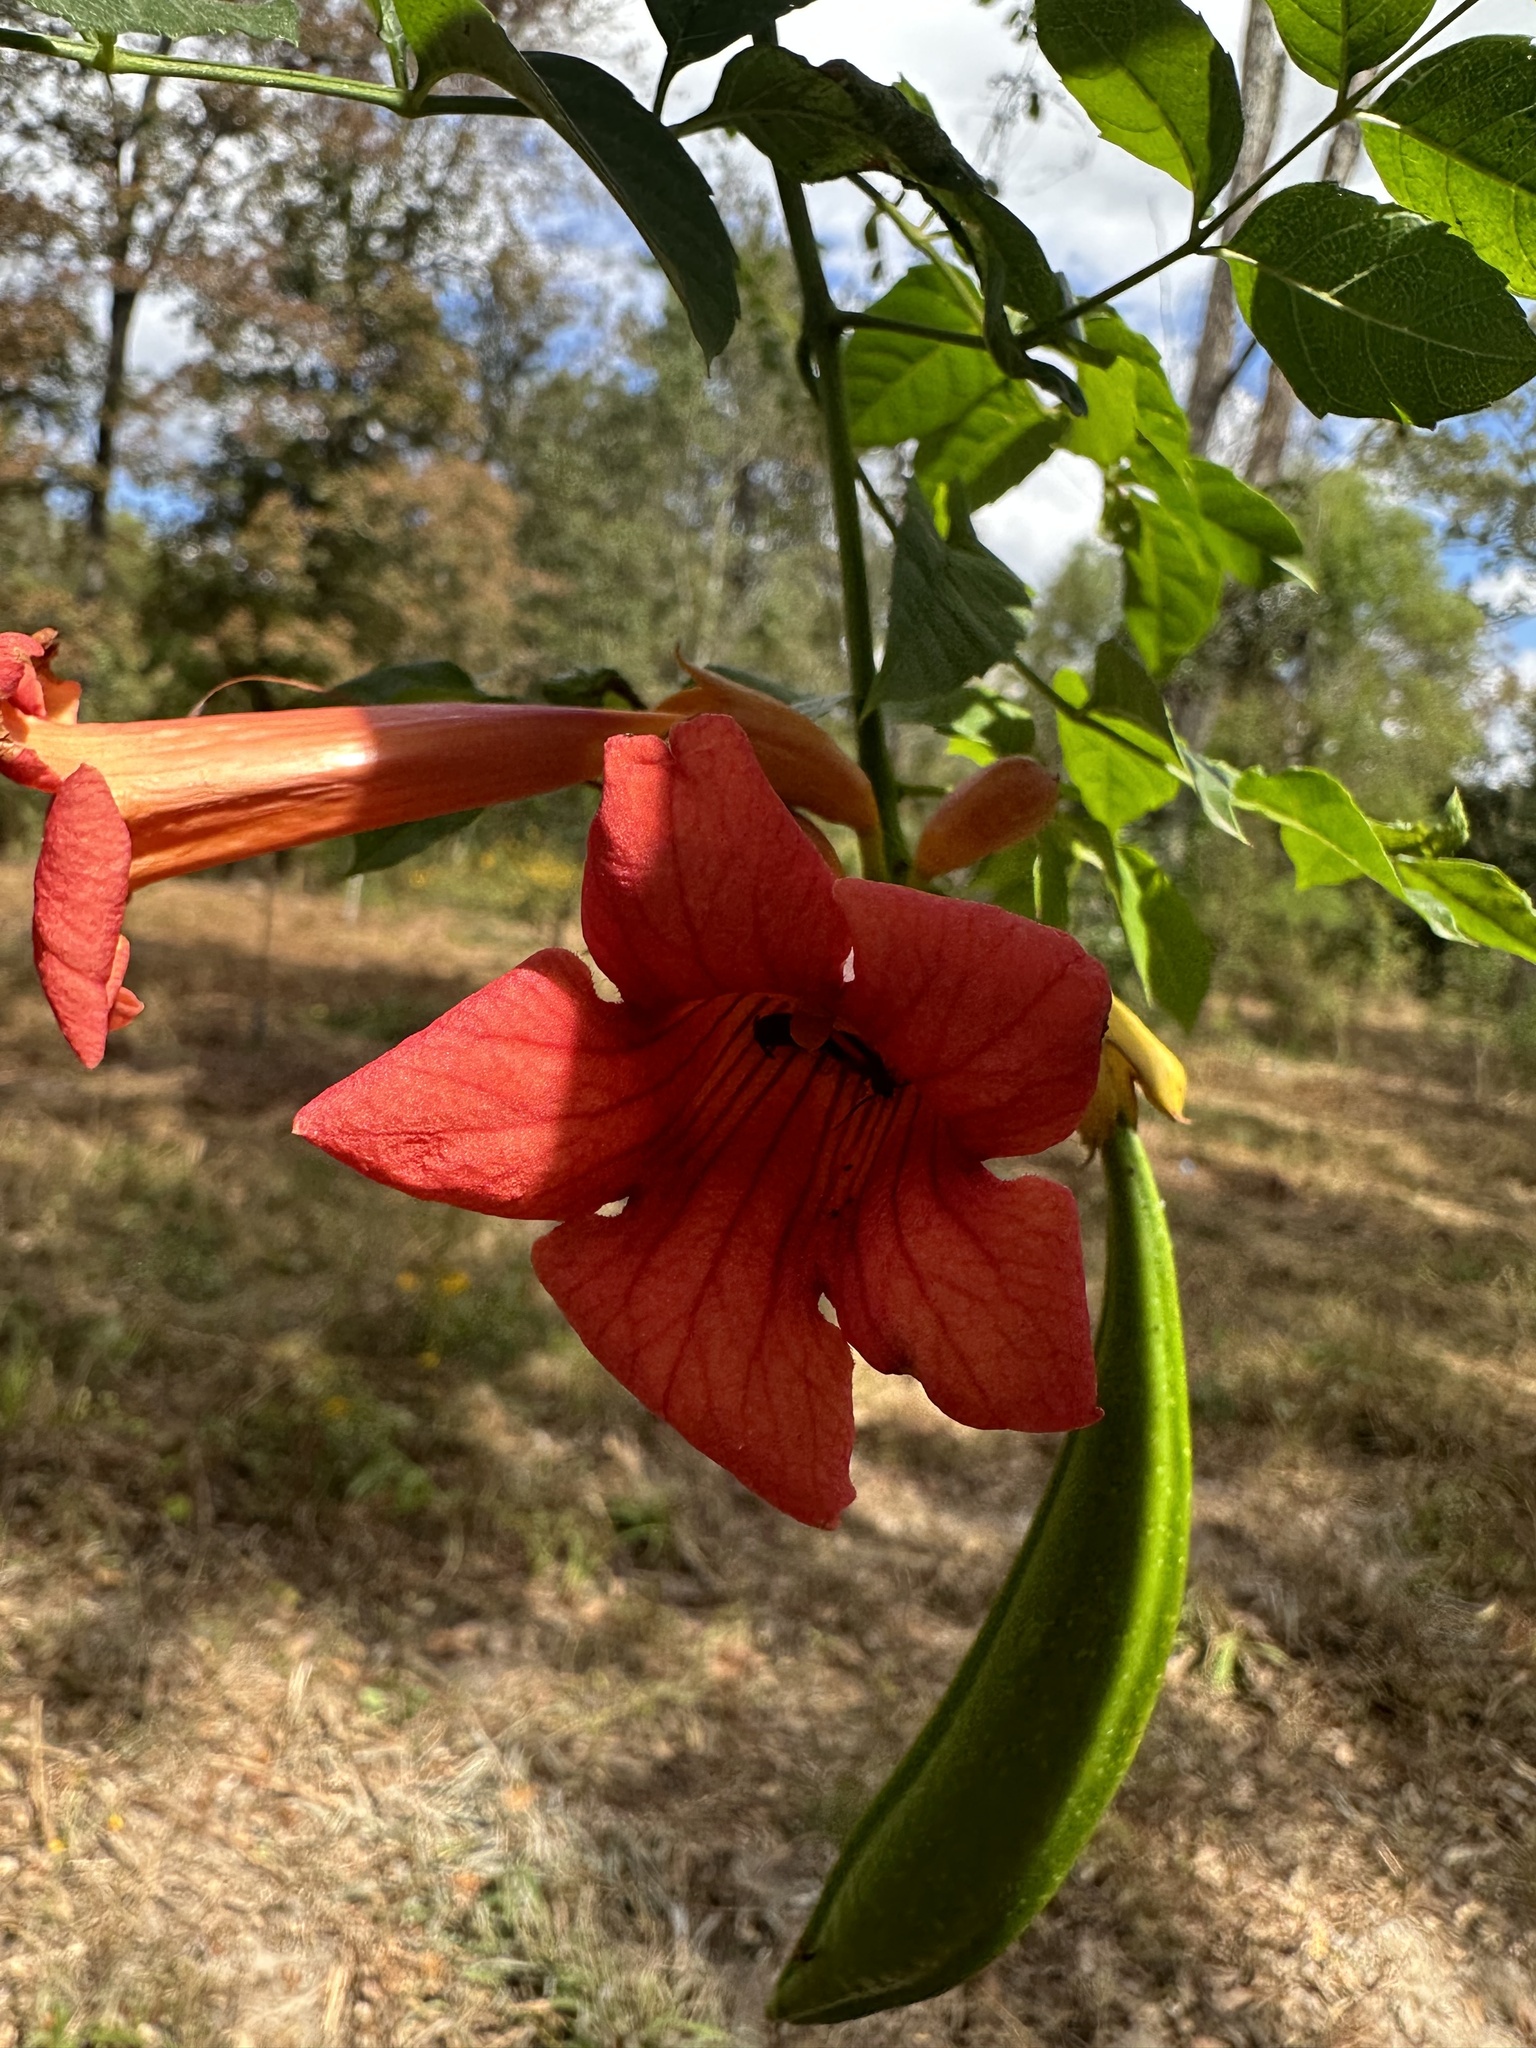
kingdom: Plantae
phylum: Tracheophyta
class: Magnoliopsida
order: Lamiales
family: Bignoniaceae
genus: Campsis
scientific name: Campsis radicans
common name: Trumpet-creeper
